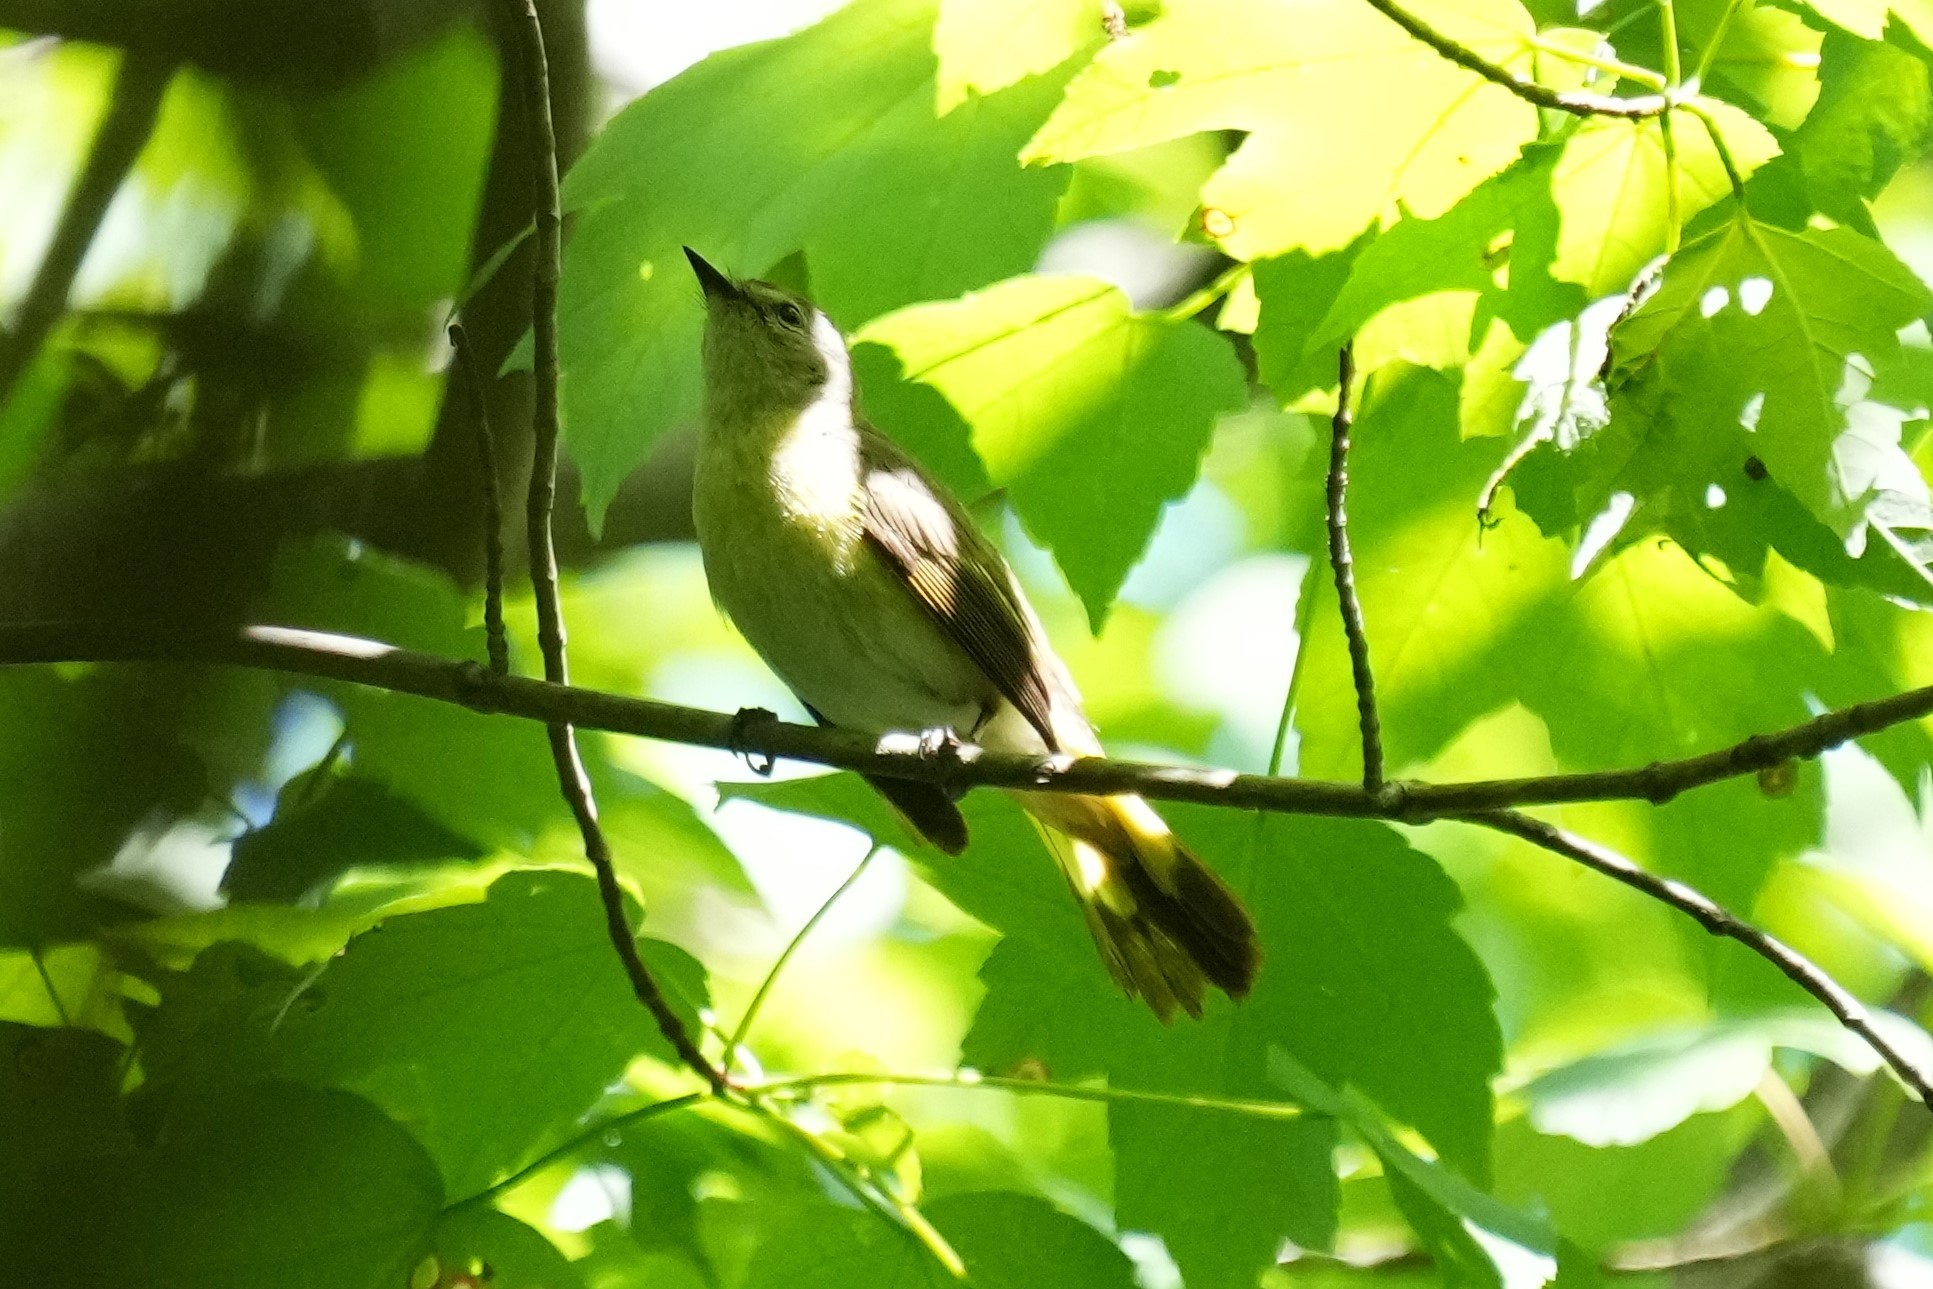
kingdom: Animalia
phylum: Chordata
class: Aves
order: Passeriformes
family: Parulidae
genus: Setophaga
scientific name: Setophaga ruticilla
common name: American redstart
